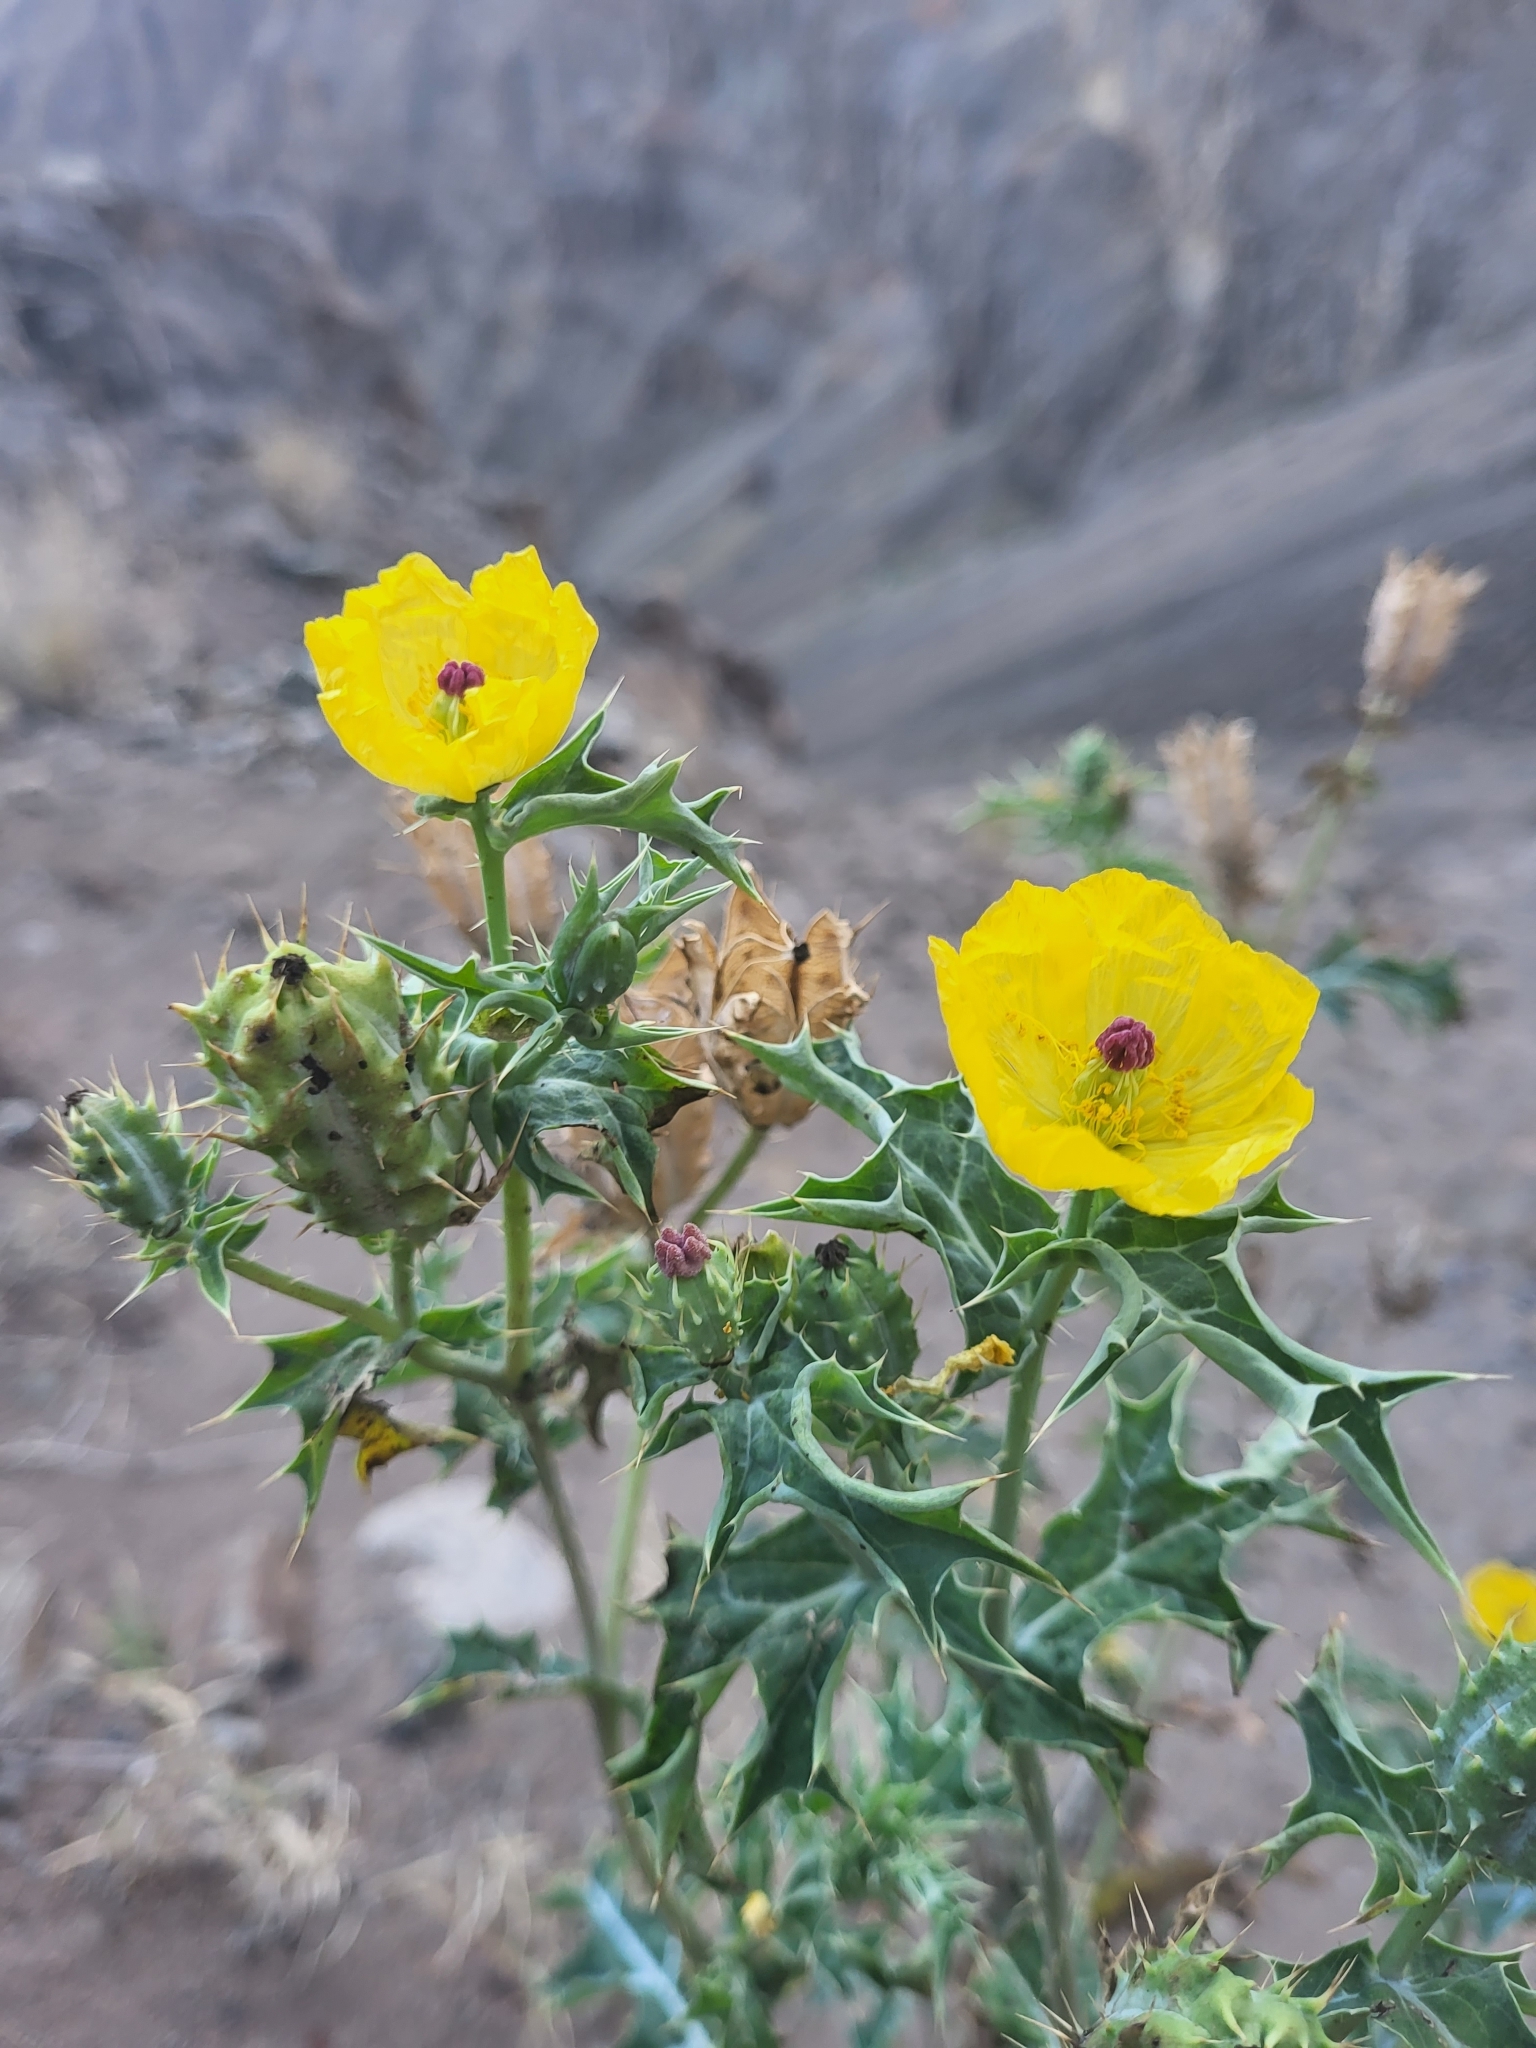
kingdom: Plantae
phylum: Tracheophyta
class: Magnoliopsida
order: Ranunculales
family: Papaveraceae
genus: Argemone
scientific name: Argemone mexicana
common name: Mexican poppy
